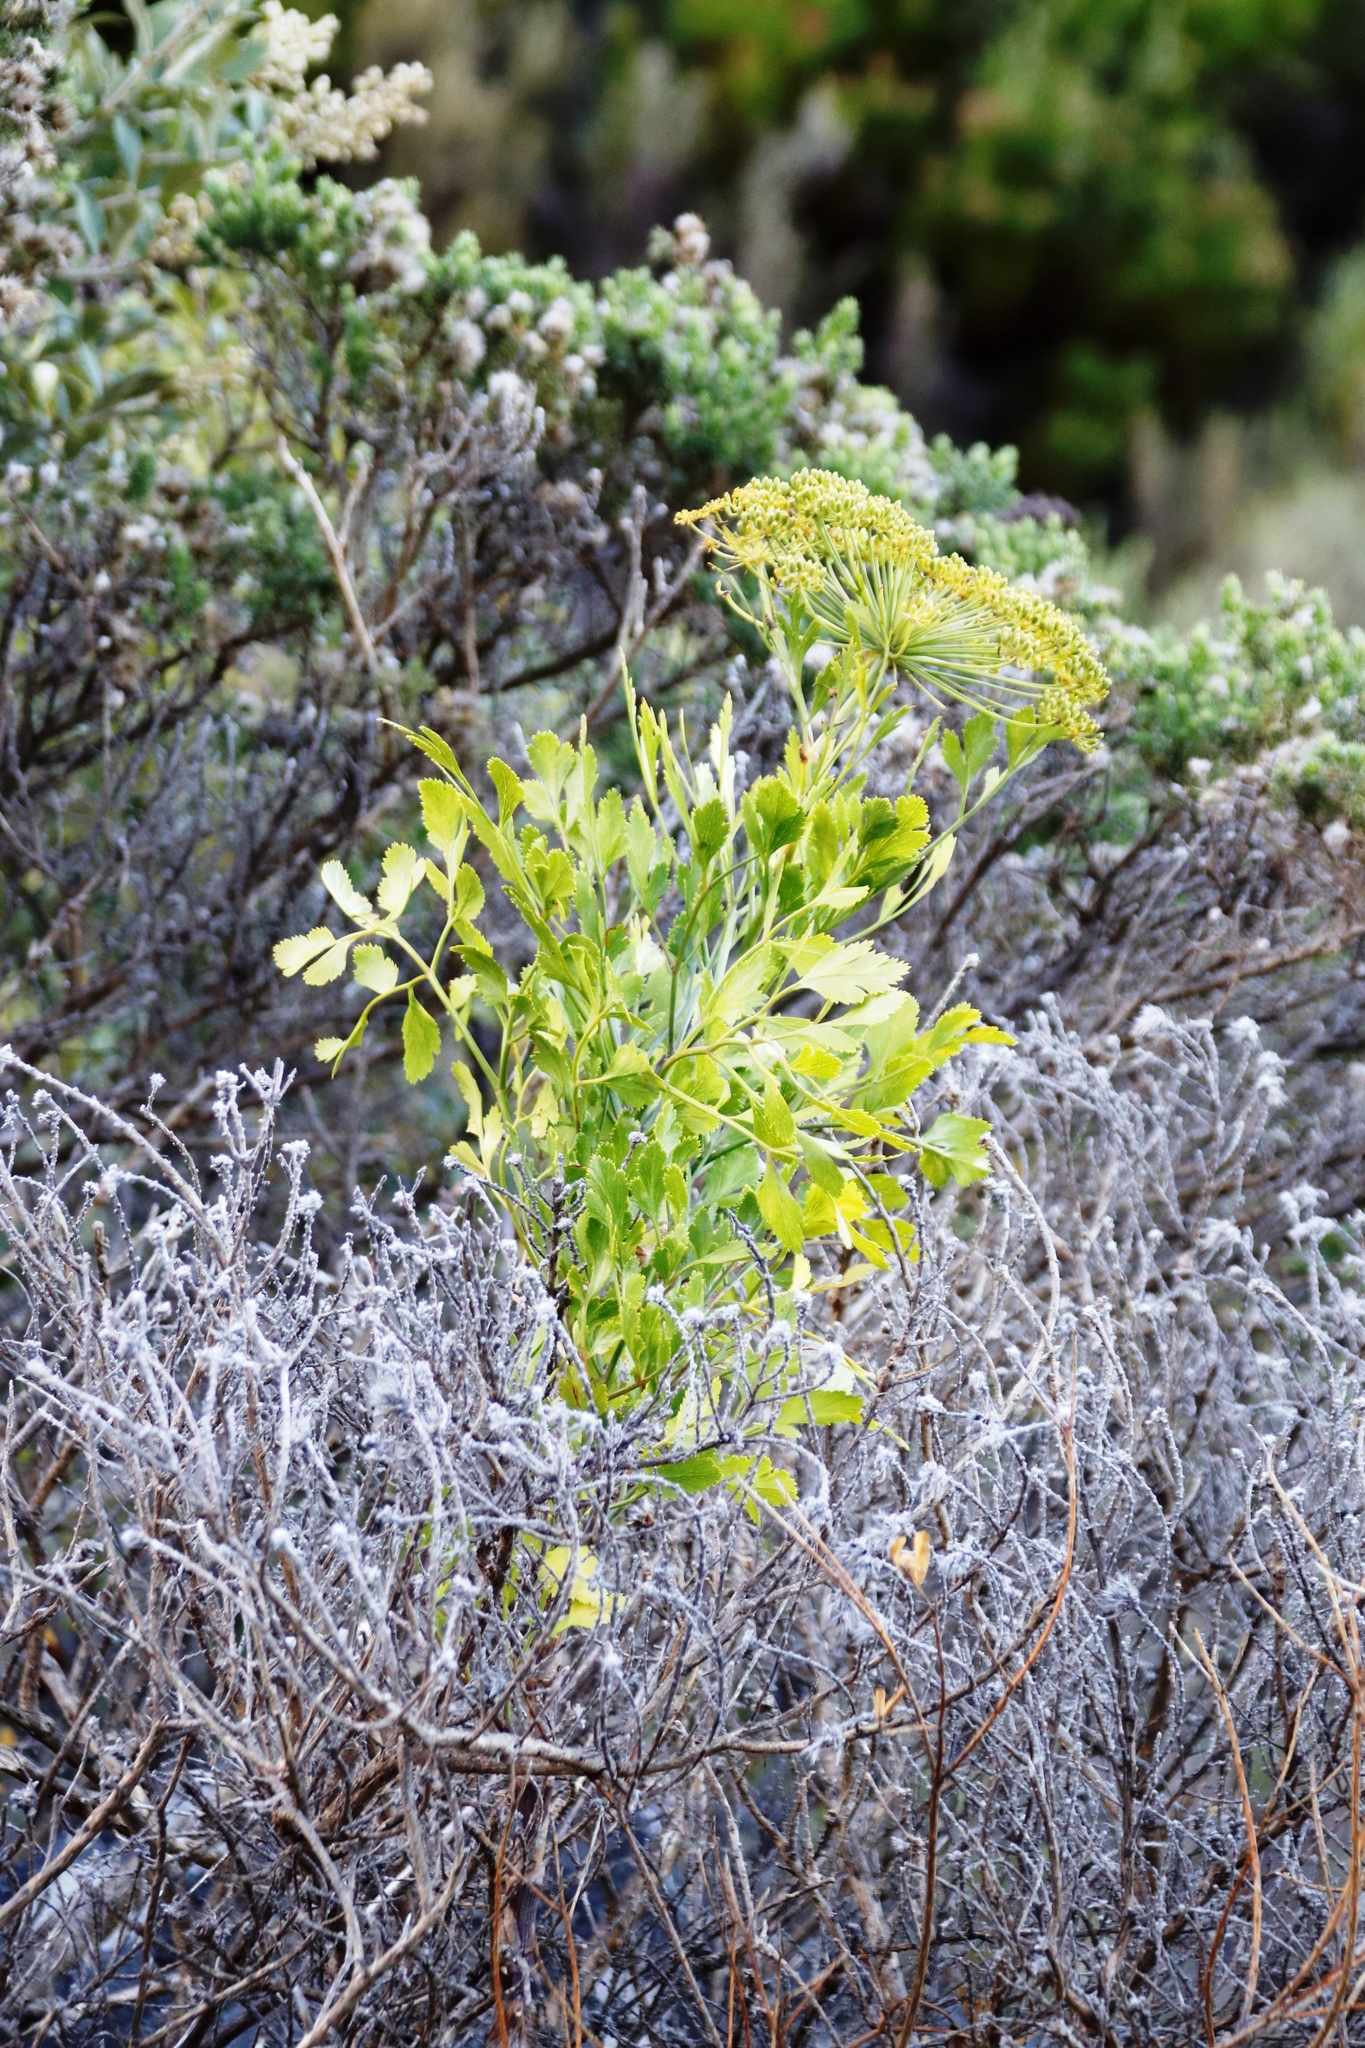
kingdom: Plantae
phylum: Tracheophyta
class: Magnoliopsida
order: Apiales
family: Apiaceae
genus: Notobubon
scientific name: Notobubon galbanum
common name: Blisterbush
